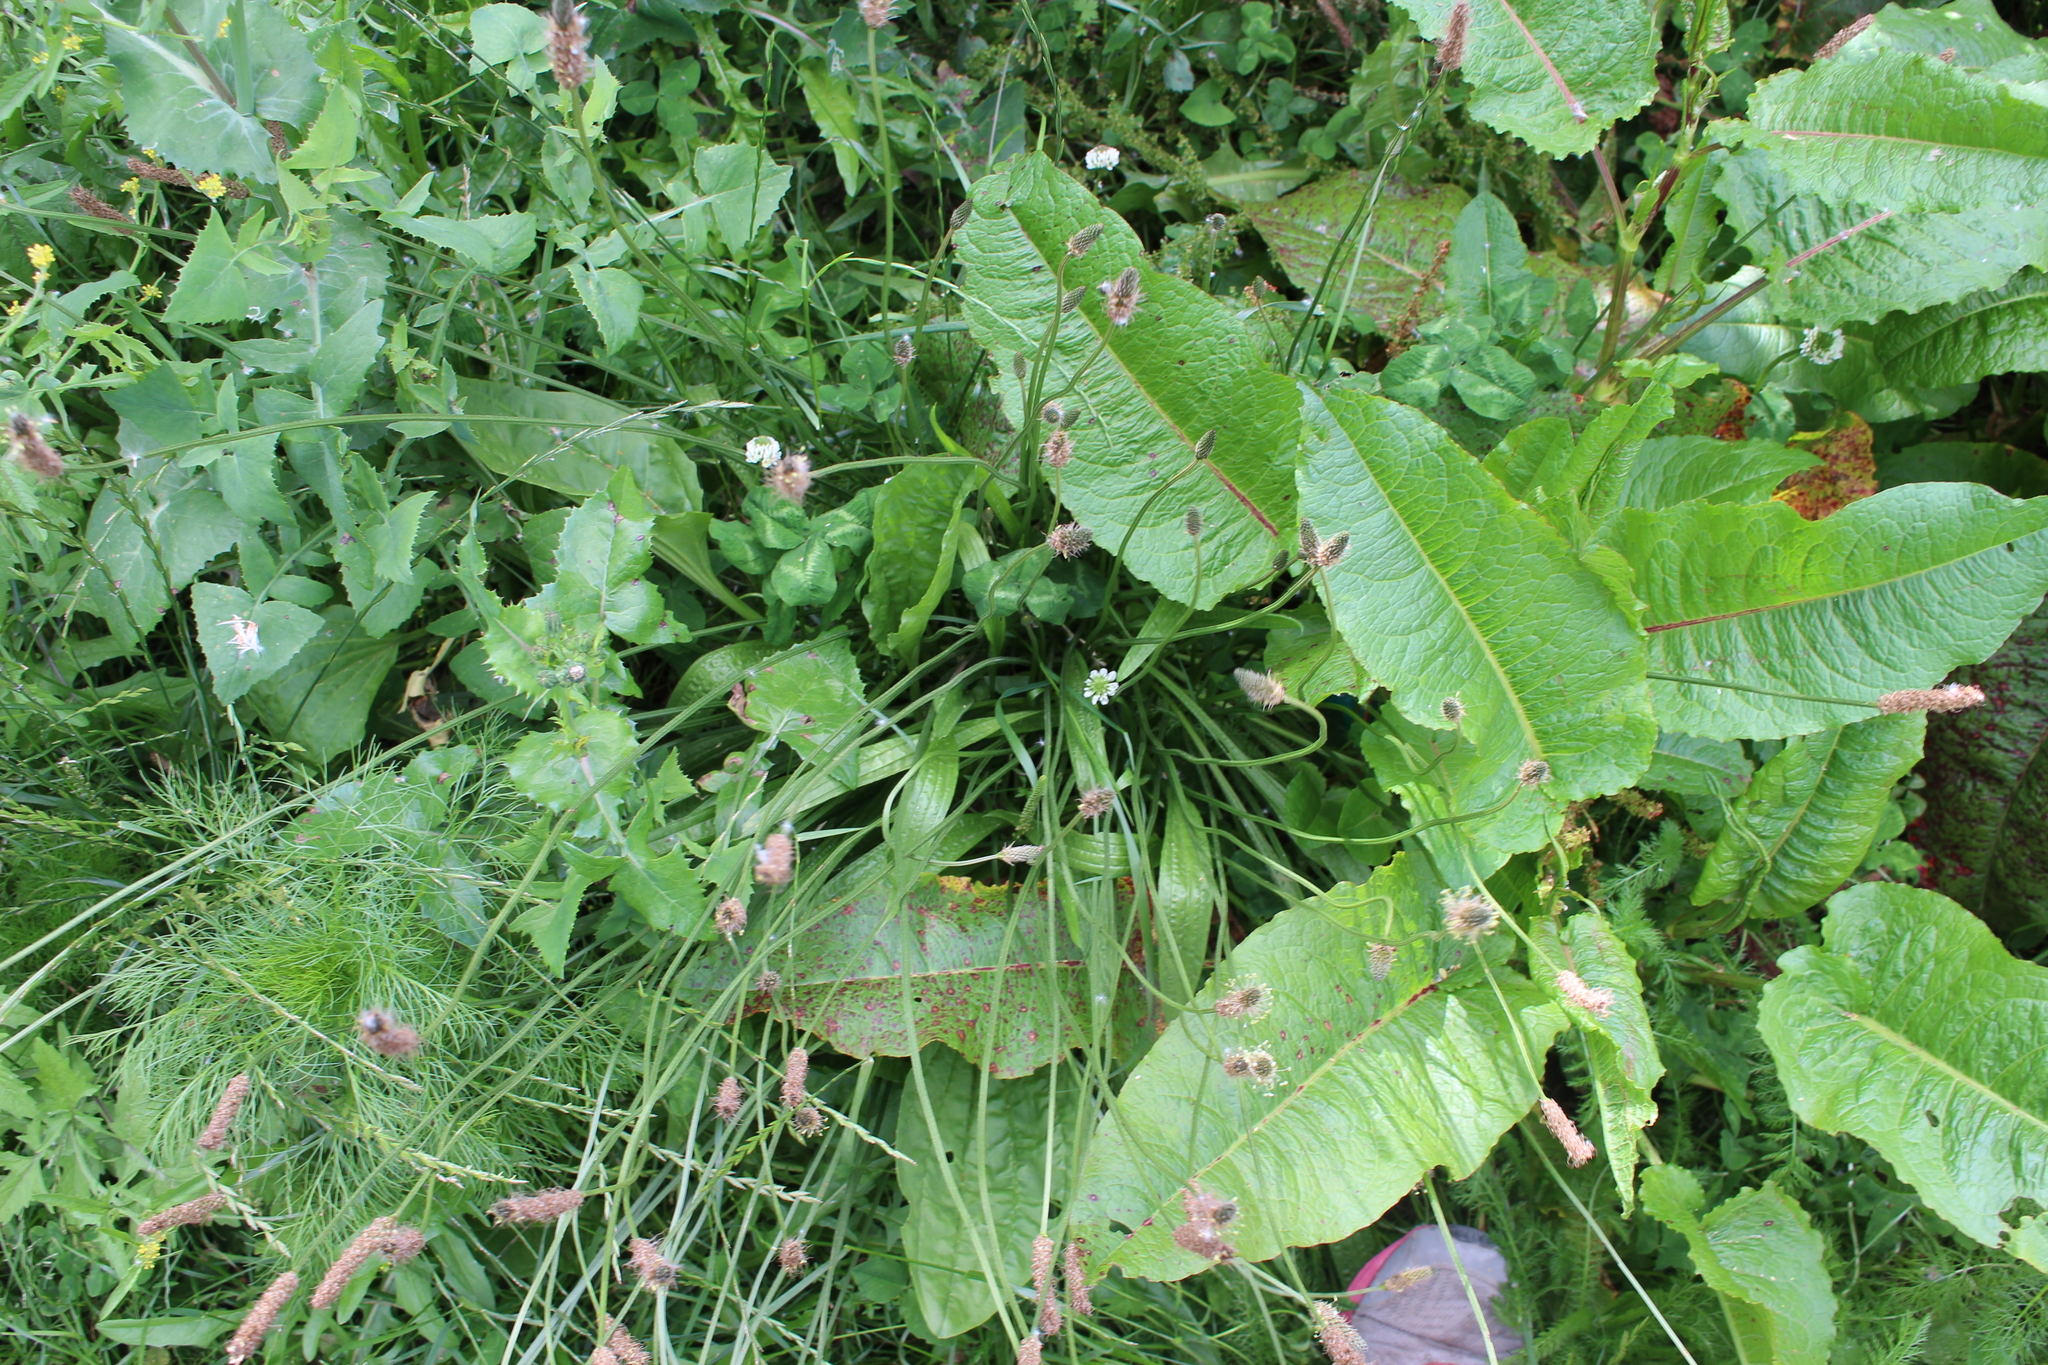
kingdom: Plantae
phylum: Tracheophyta
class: Magnoliopsida
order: Caryophyllales
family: Polygonaceae
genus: Rumex
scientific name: Rumex obtusifolius
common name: Bitter dock
